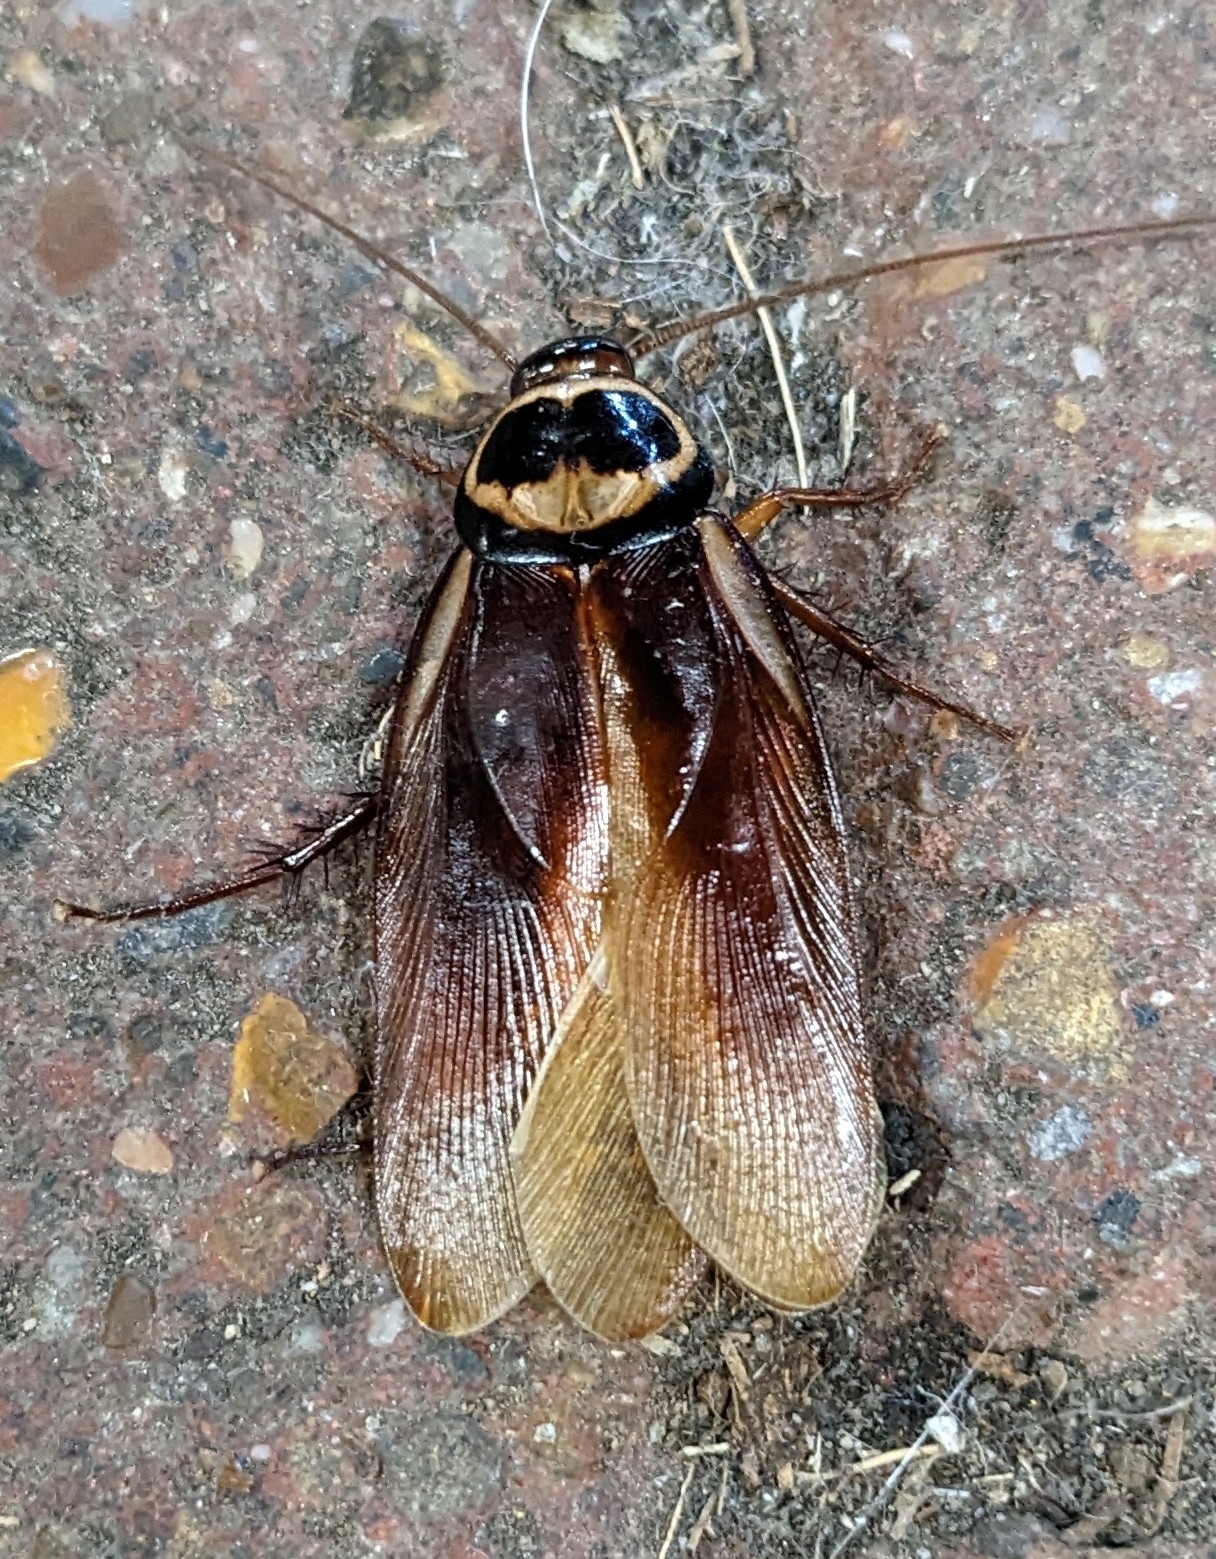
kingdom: Animalia
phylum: Arthropoda
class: Insecta
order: Blattodea
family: Blattidae
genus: Periplaneta
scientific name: Periplaneta australasiae
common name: Australian cockroach
